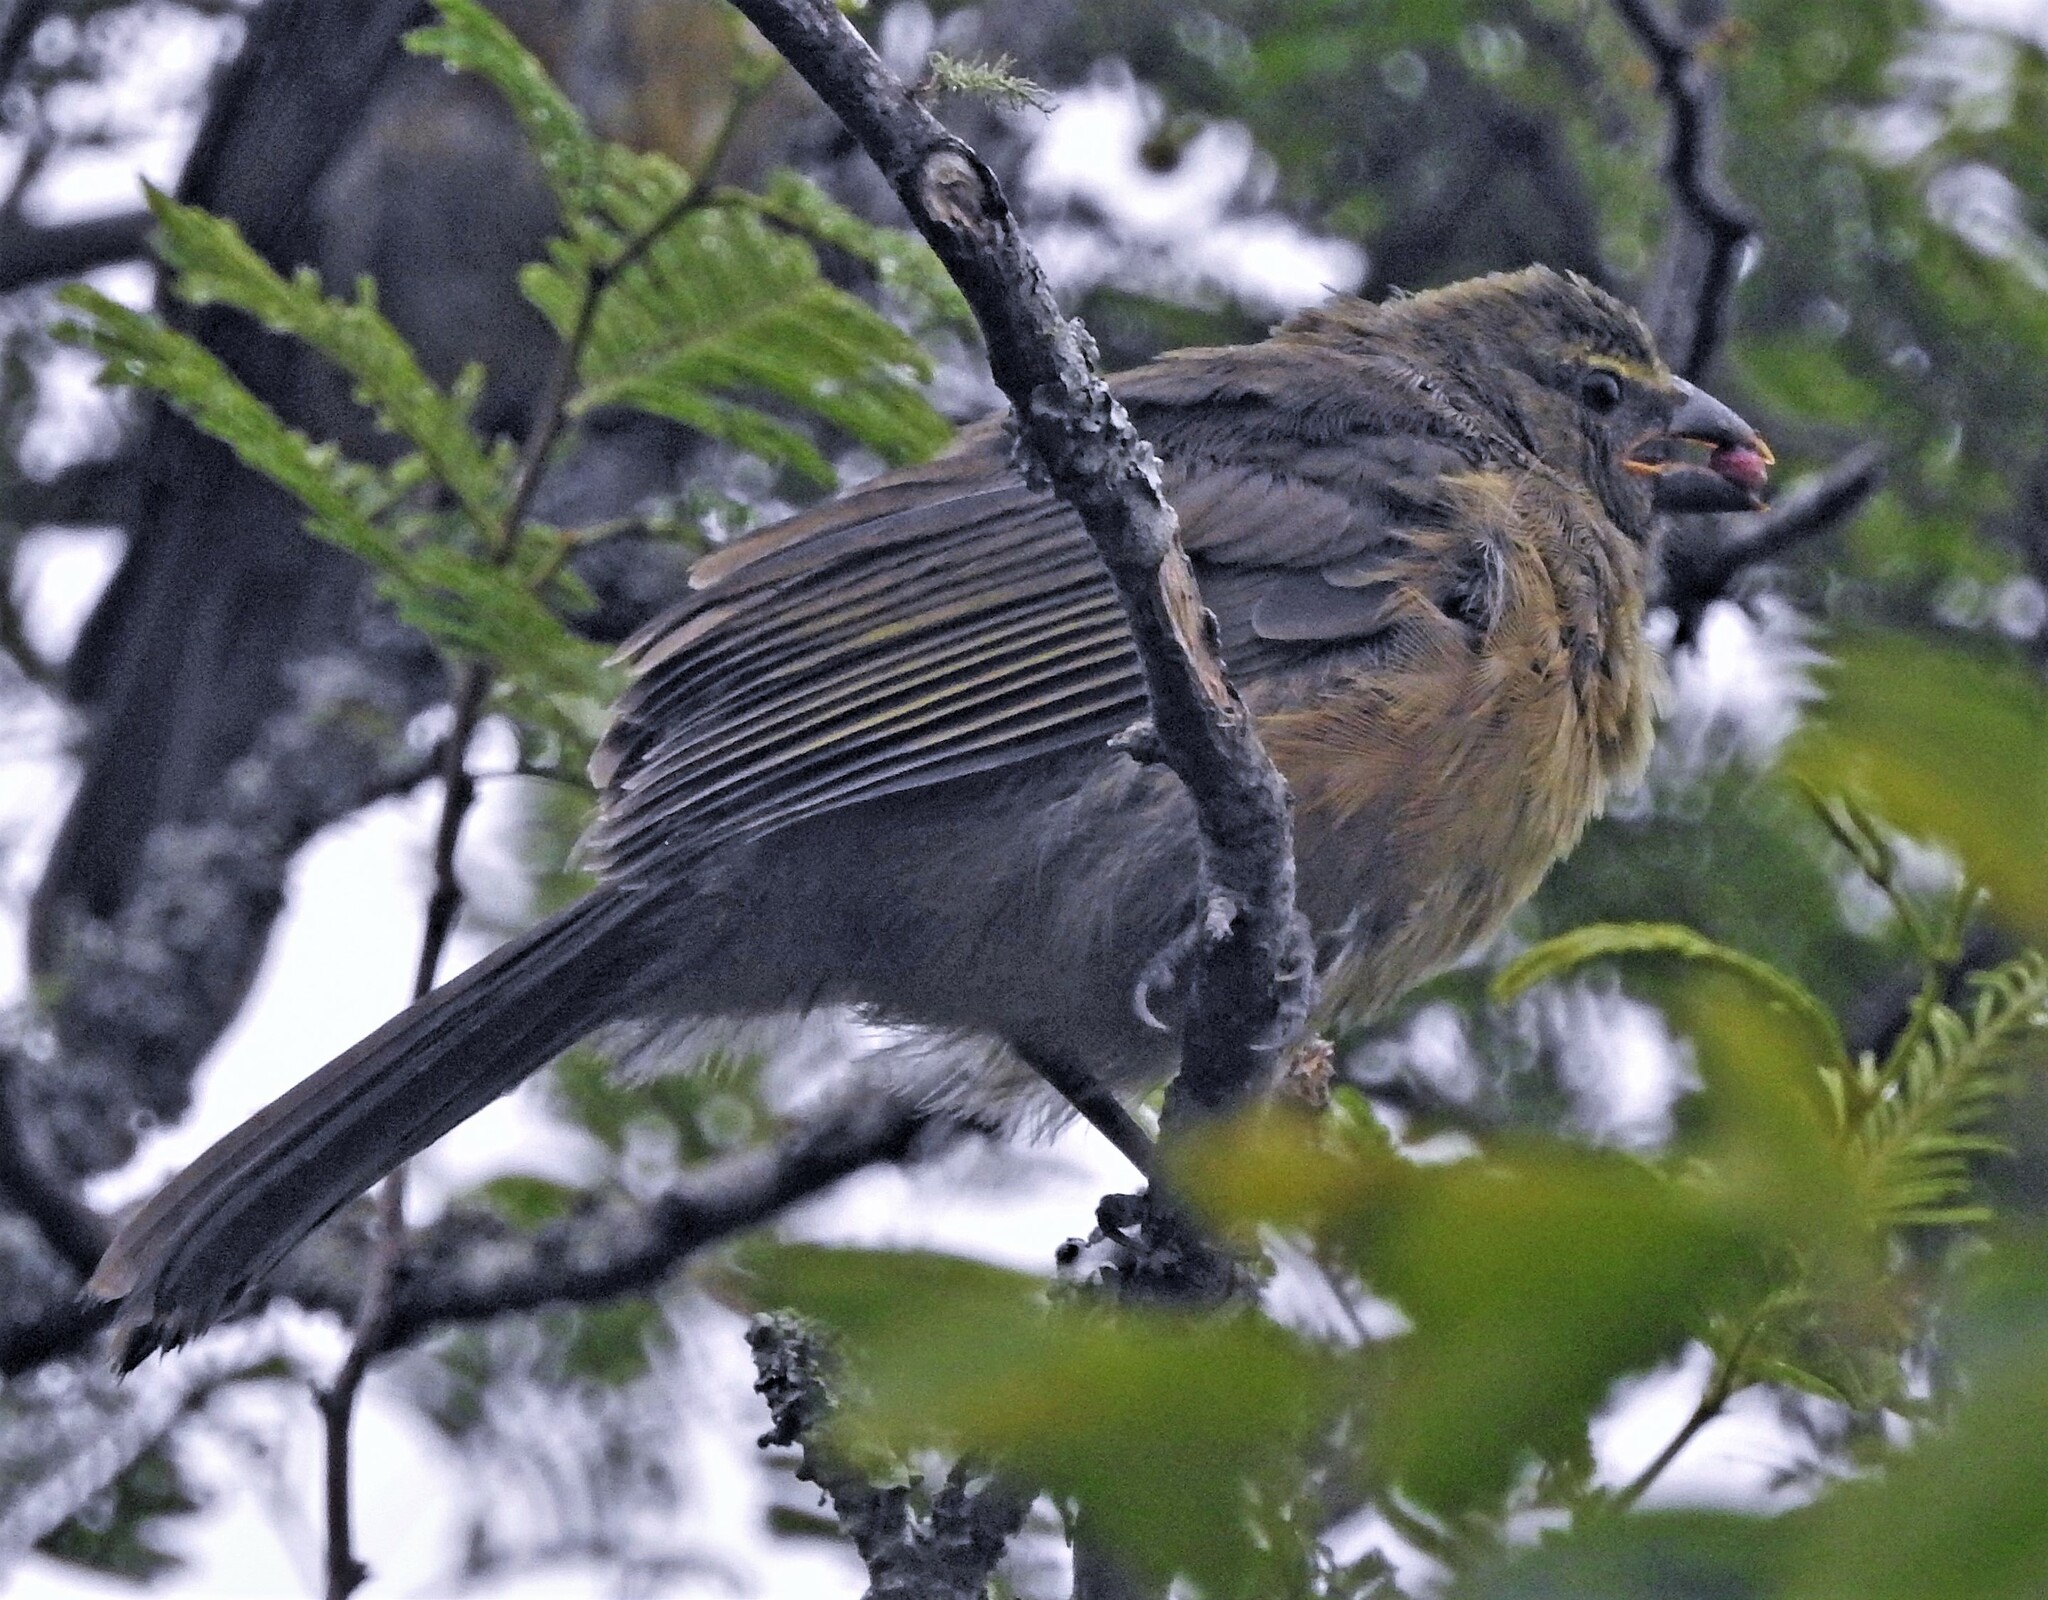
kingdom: Animalia
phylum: Chordata
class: Aves
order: Passeriformes
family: Thraupidae
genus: Saltator
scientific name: Saltator coerulescens
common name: Grayish saltator
